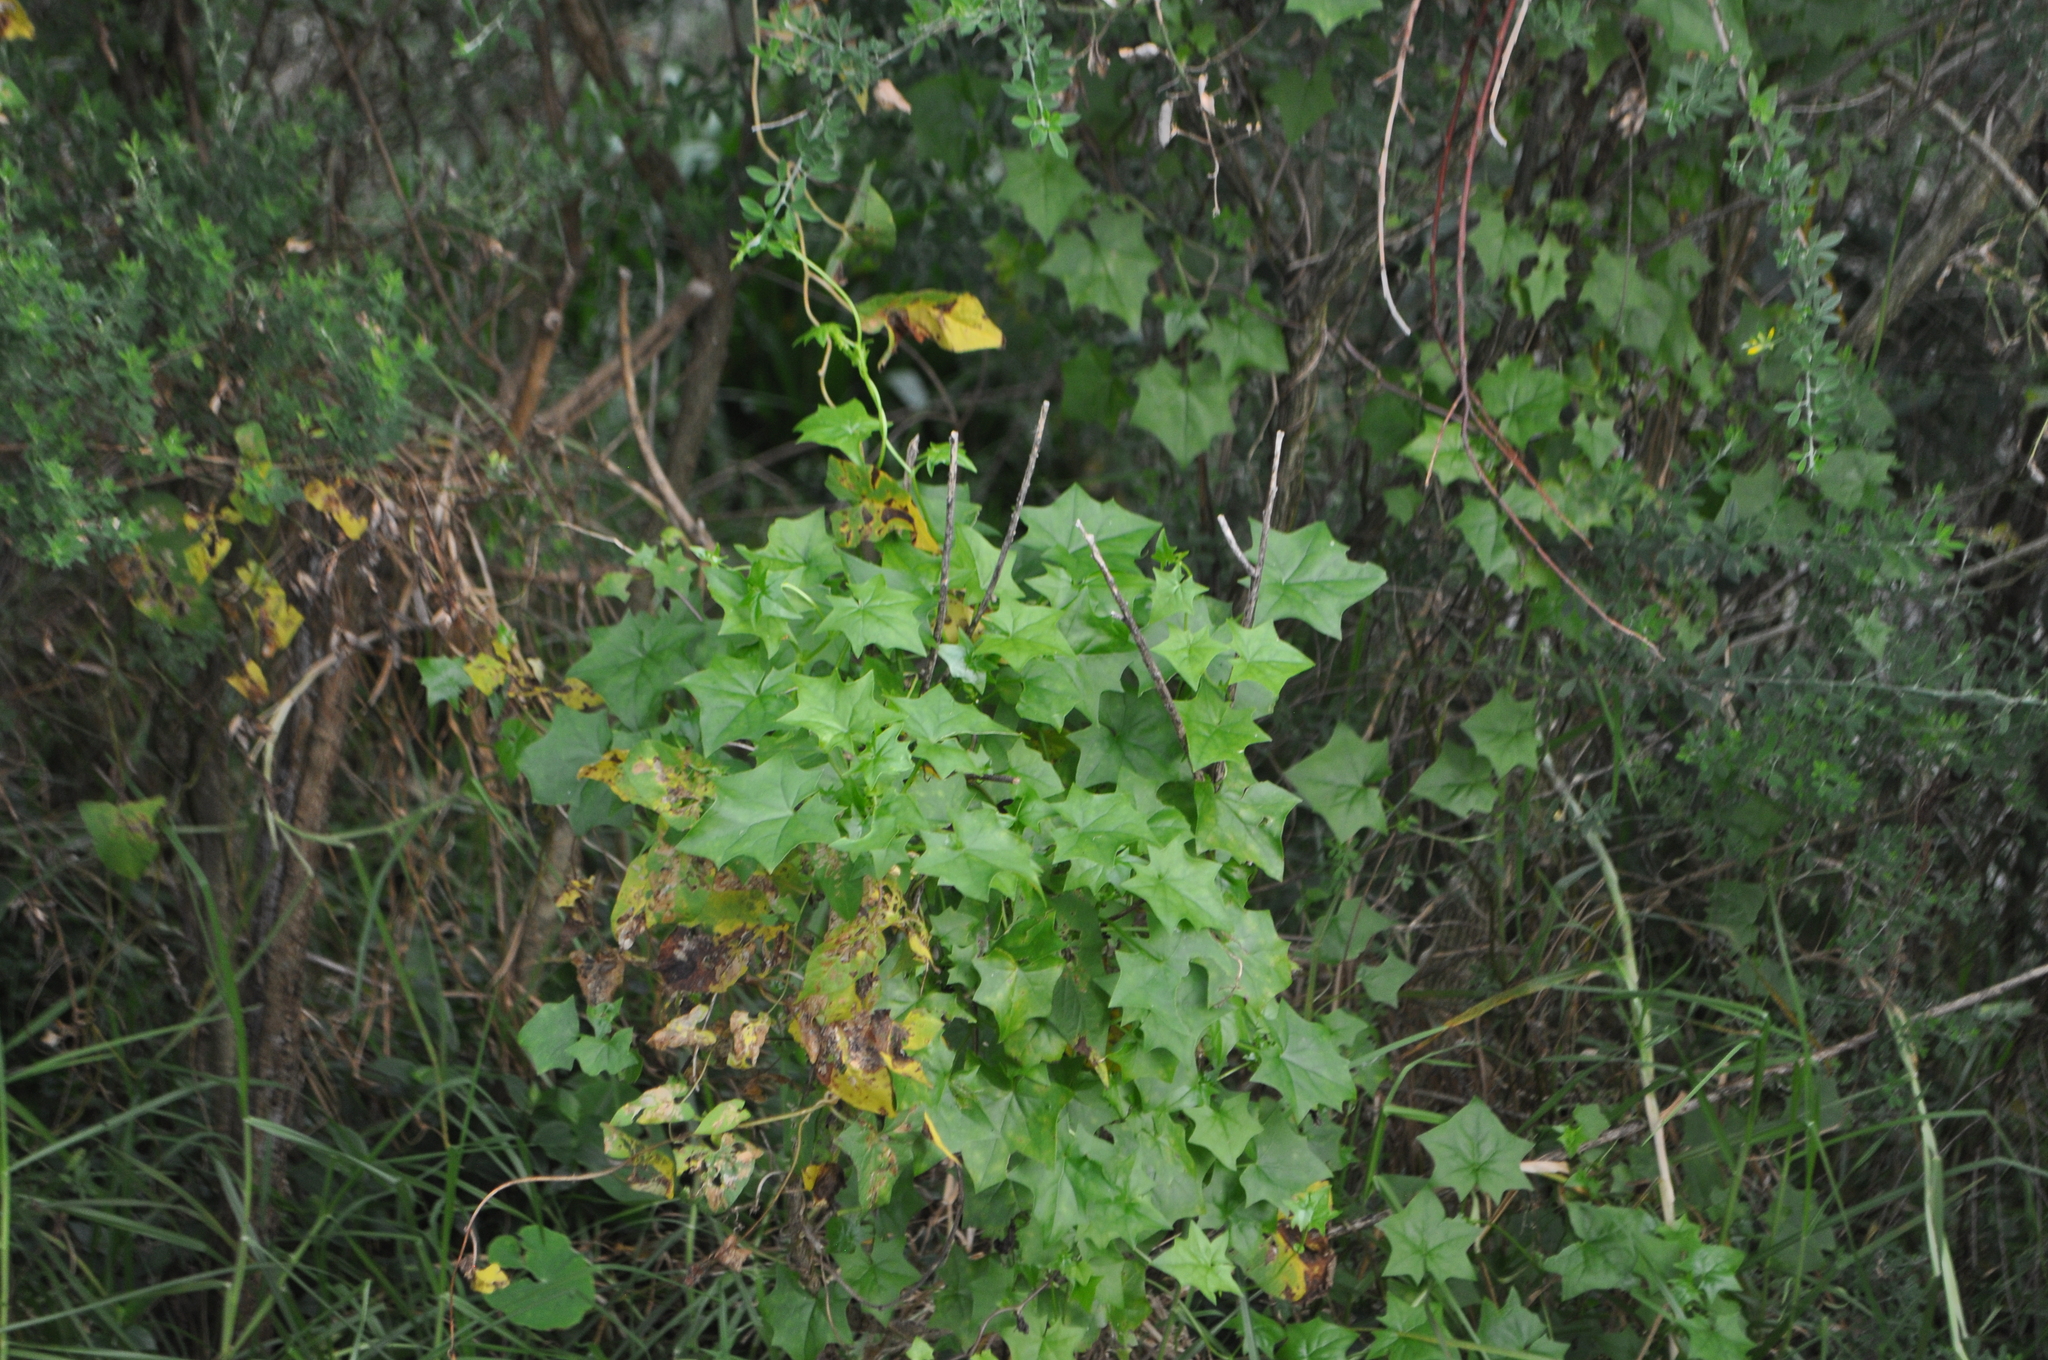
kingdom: Plantae
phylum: Tracheophyta
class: Magnoliopsida
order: Asterales
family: Asteraceae
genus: Delairea
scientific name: Delairea odorata
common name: Cape-ivy
